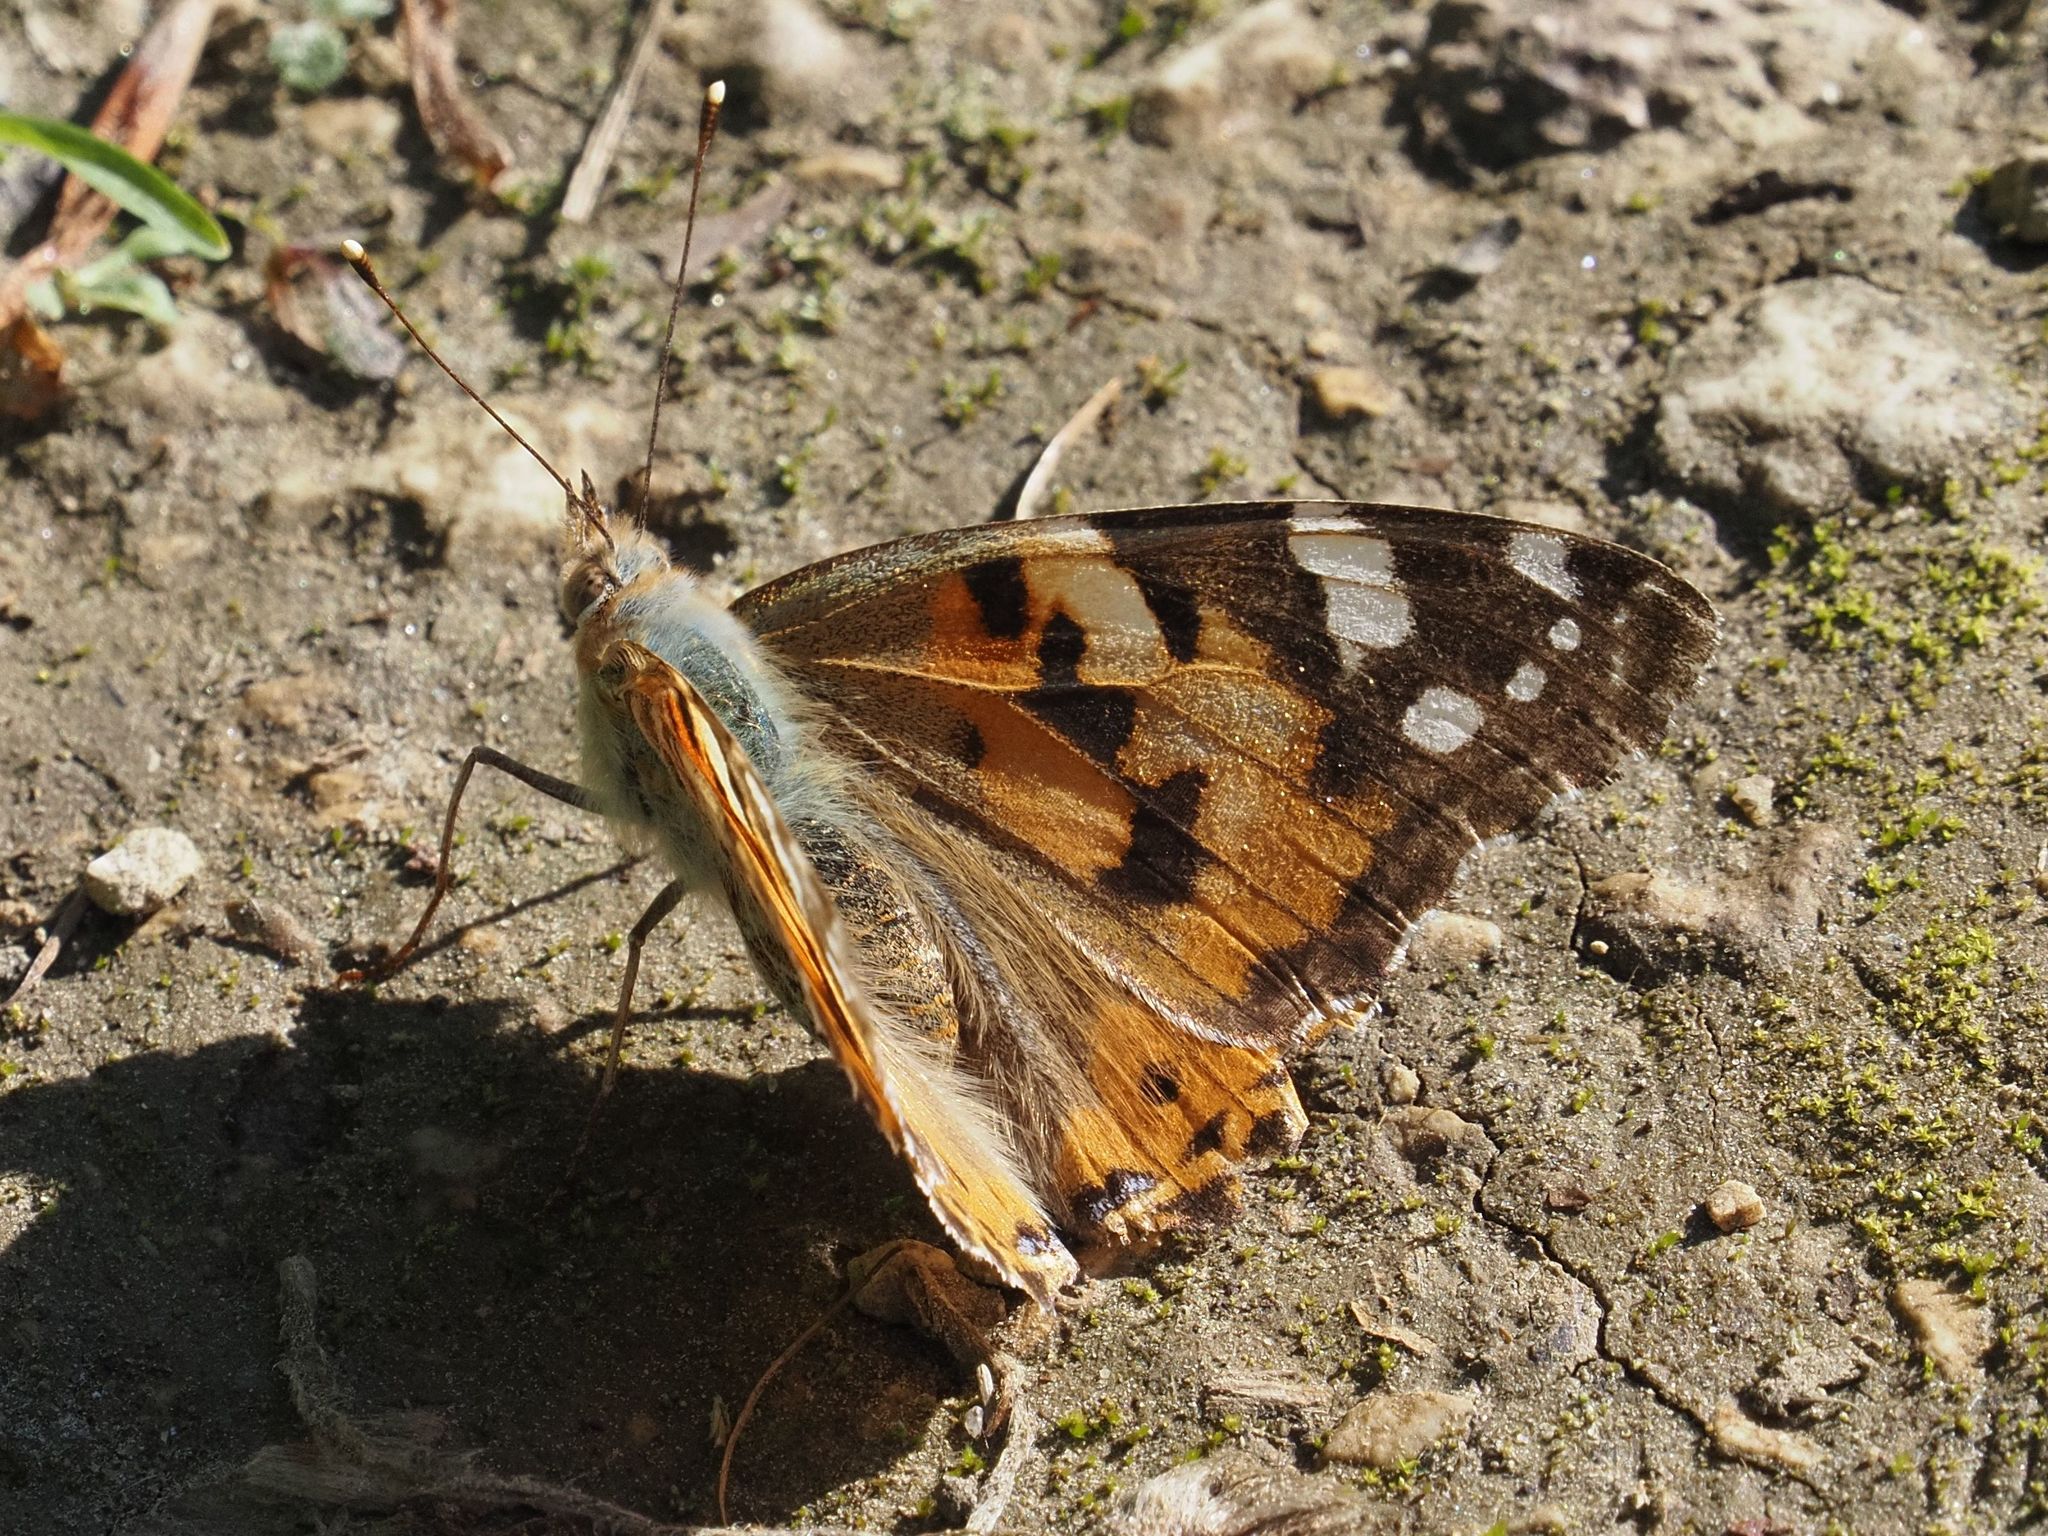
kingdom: Animalia
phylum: Arthropoda
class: Insecta
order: Lepidoptera
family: Nymphalidae
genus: Vanessa
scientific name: Vanessa cardui
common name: Painted lady
